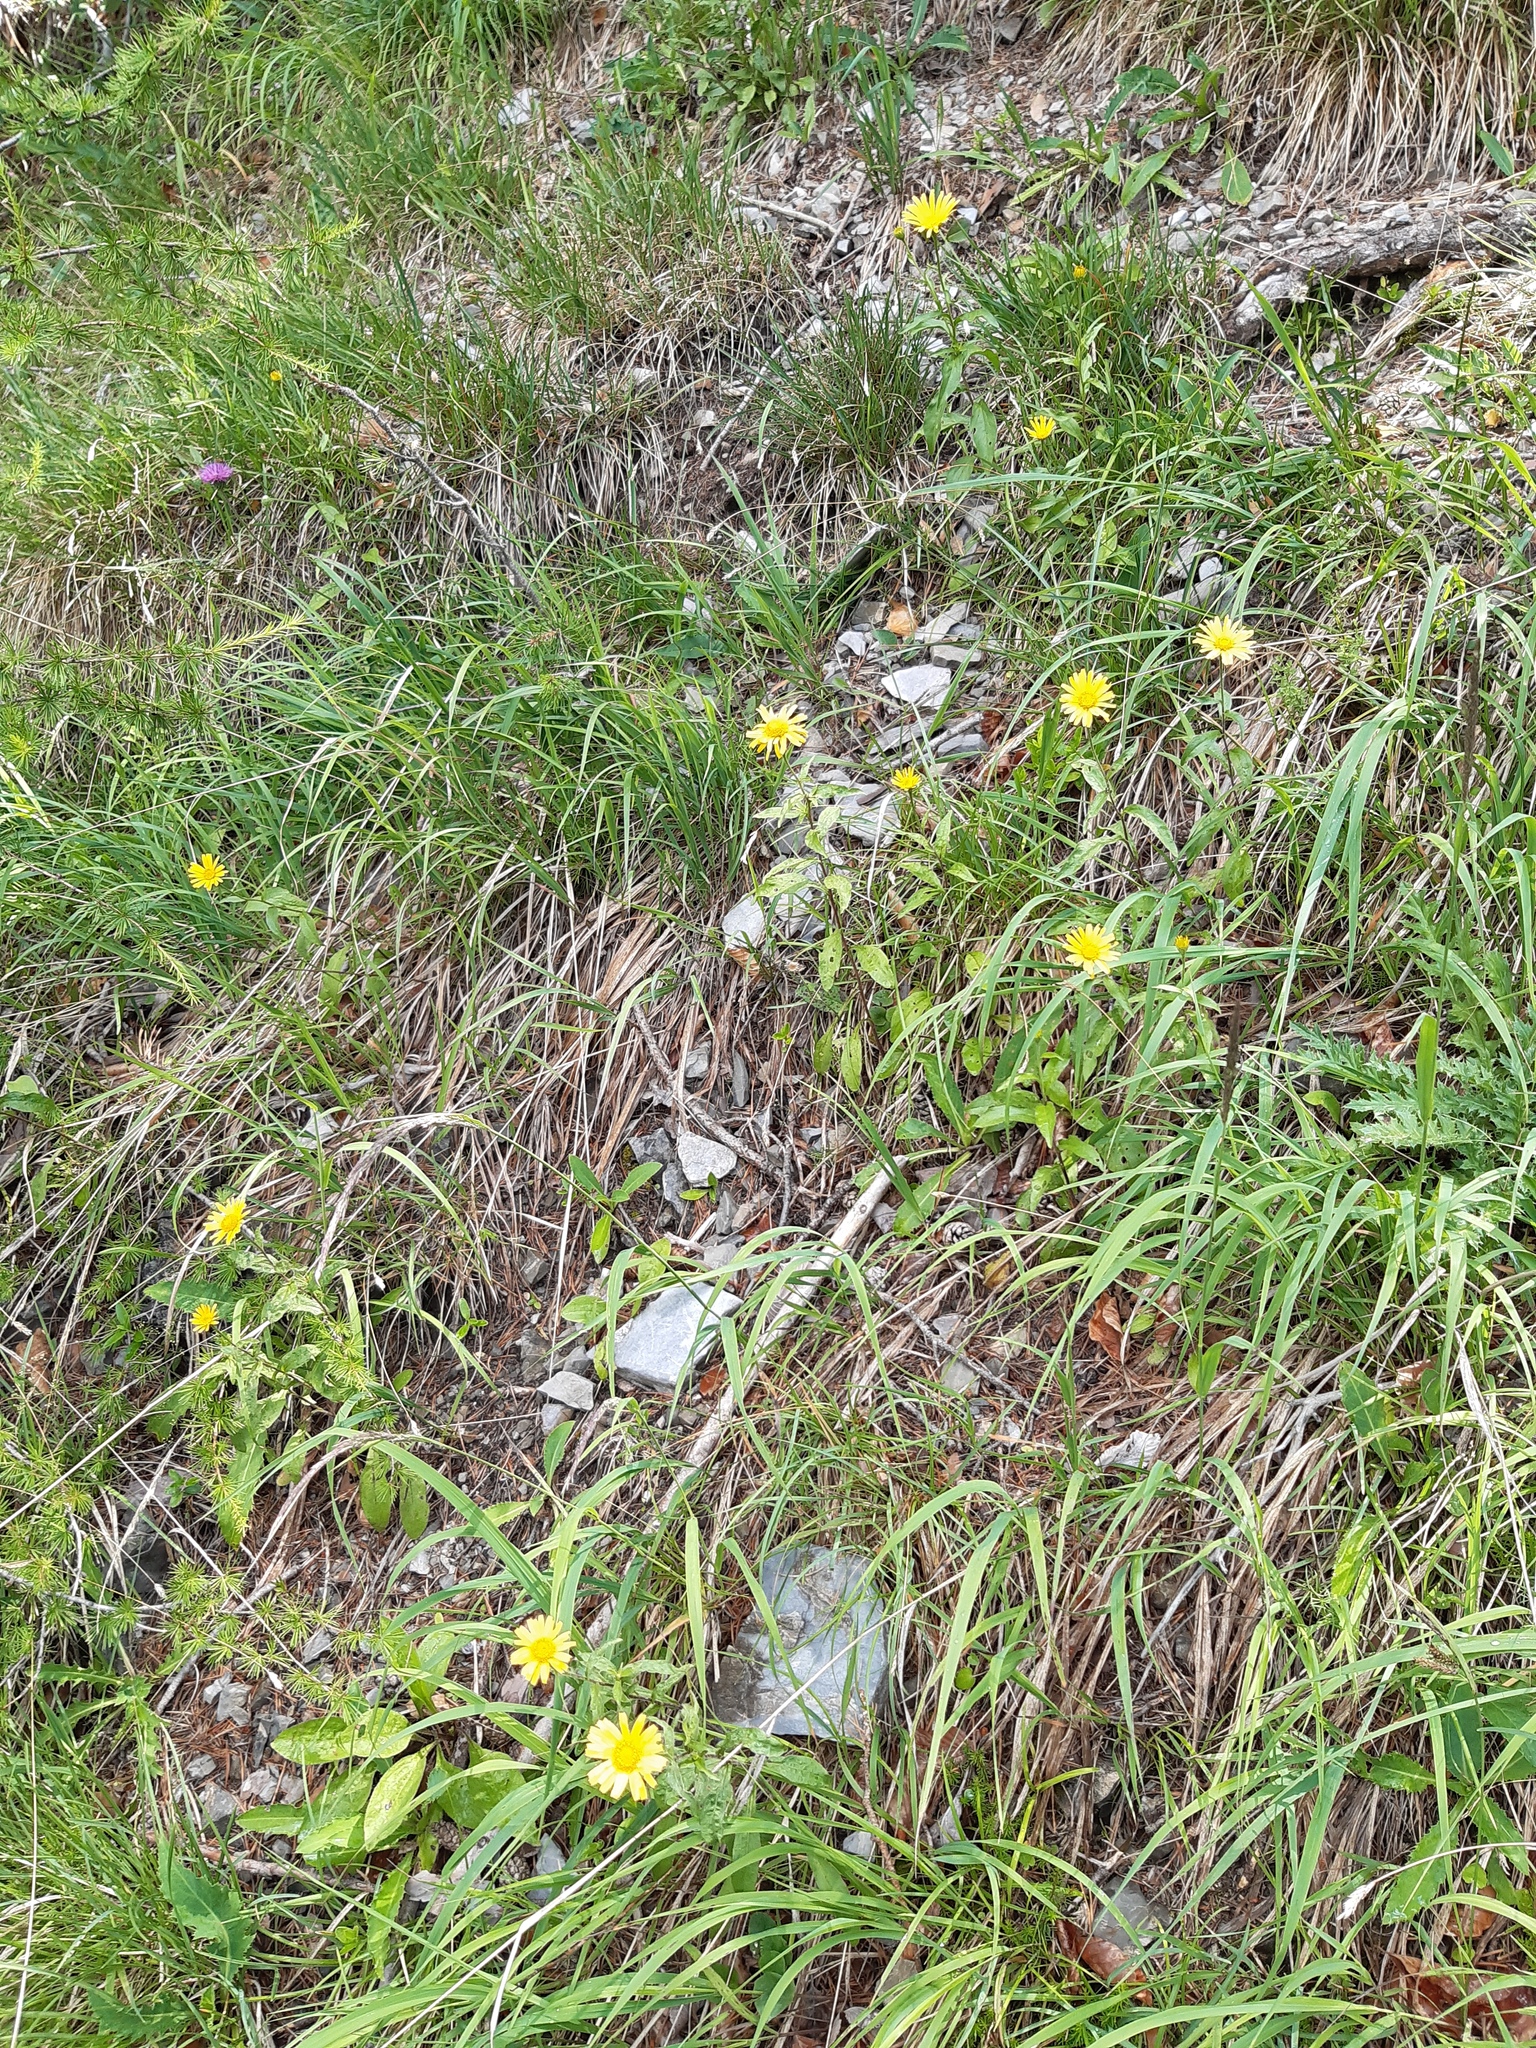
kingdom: Plantae
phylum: Tracheophyta
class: Magnoliopsida
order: Asterales
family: Asteraceae
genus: Buphthalmum
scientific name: Buphthalmum salicifolium
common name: Willow-leaved yellow-oxeye
